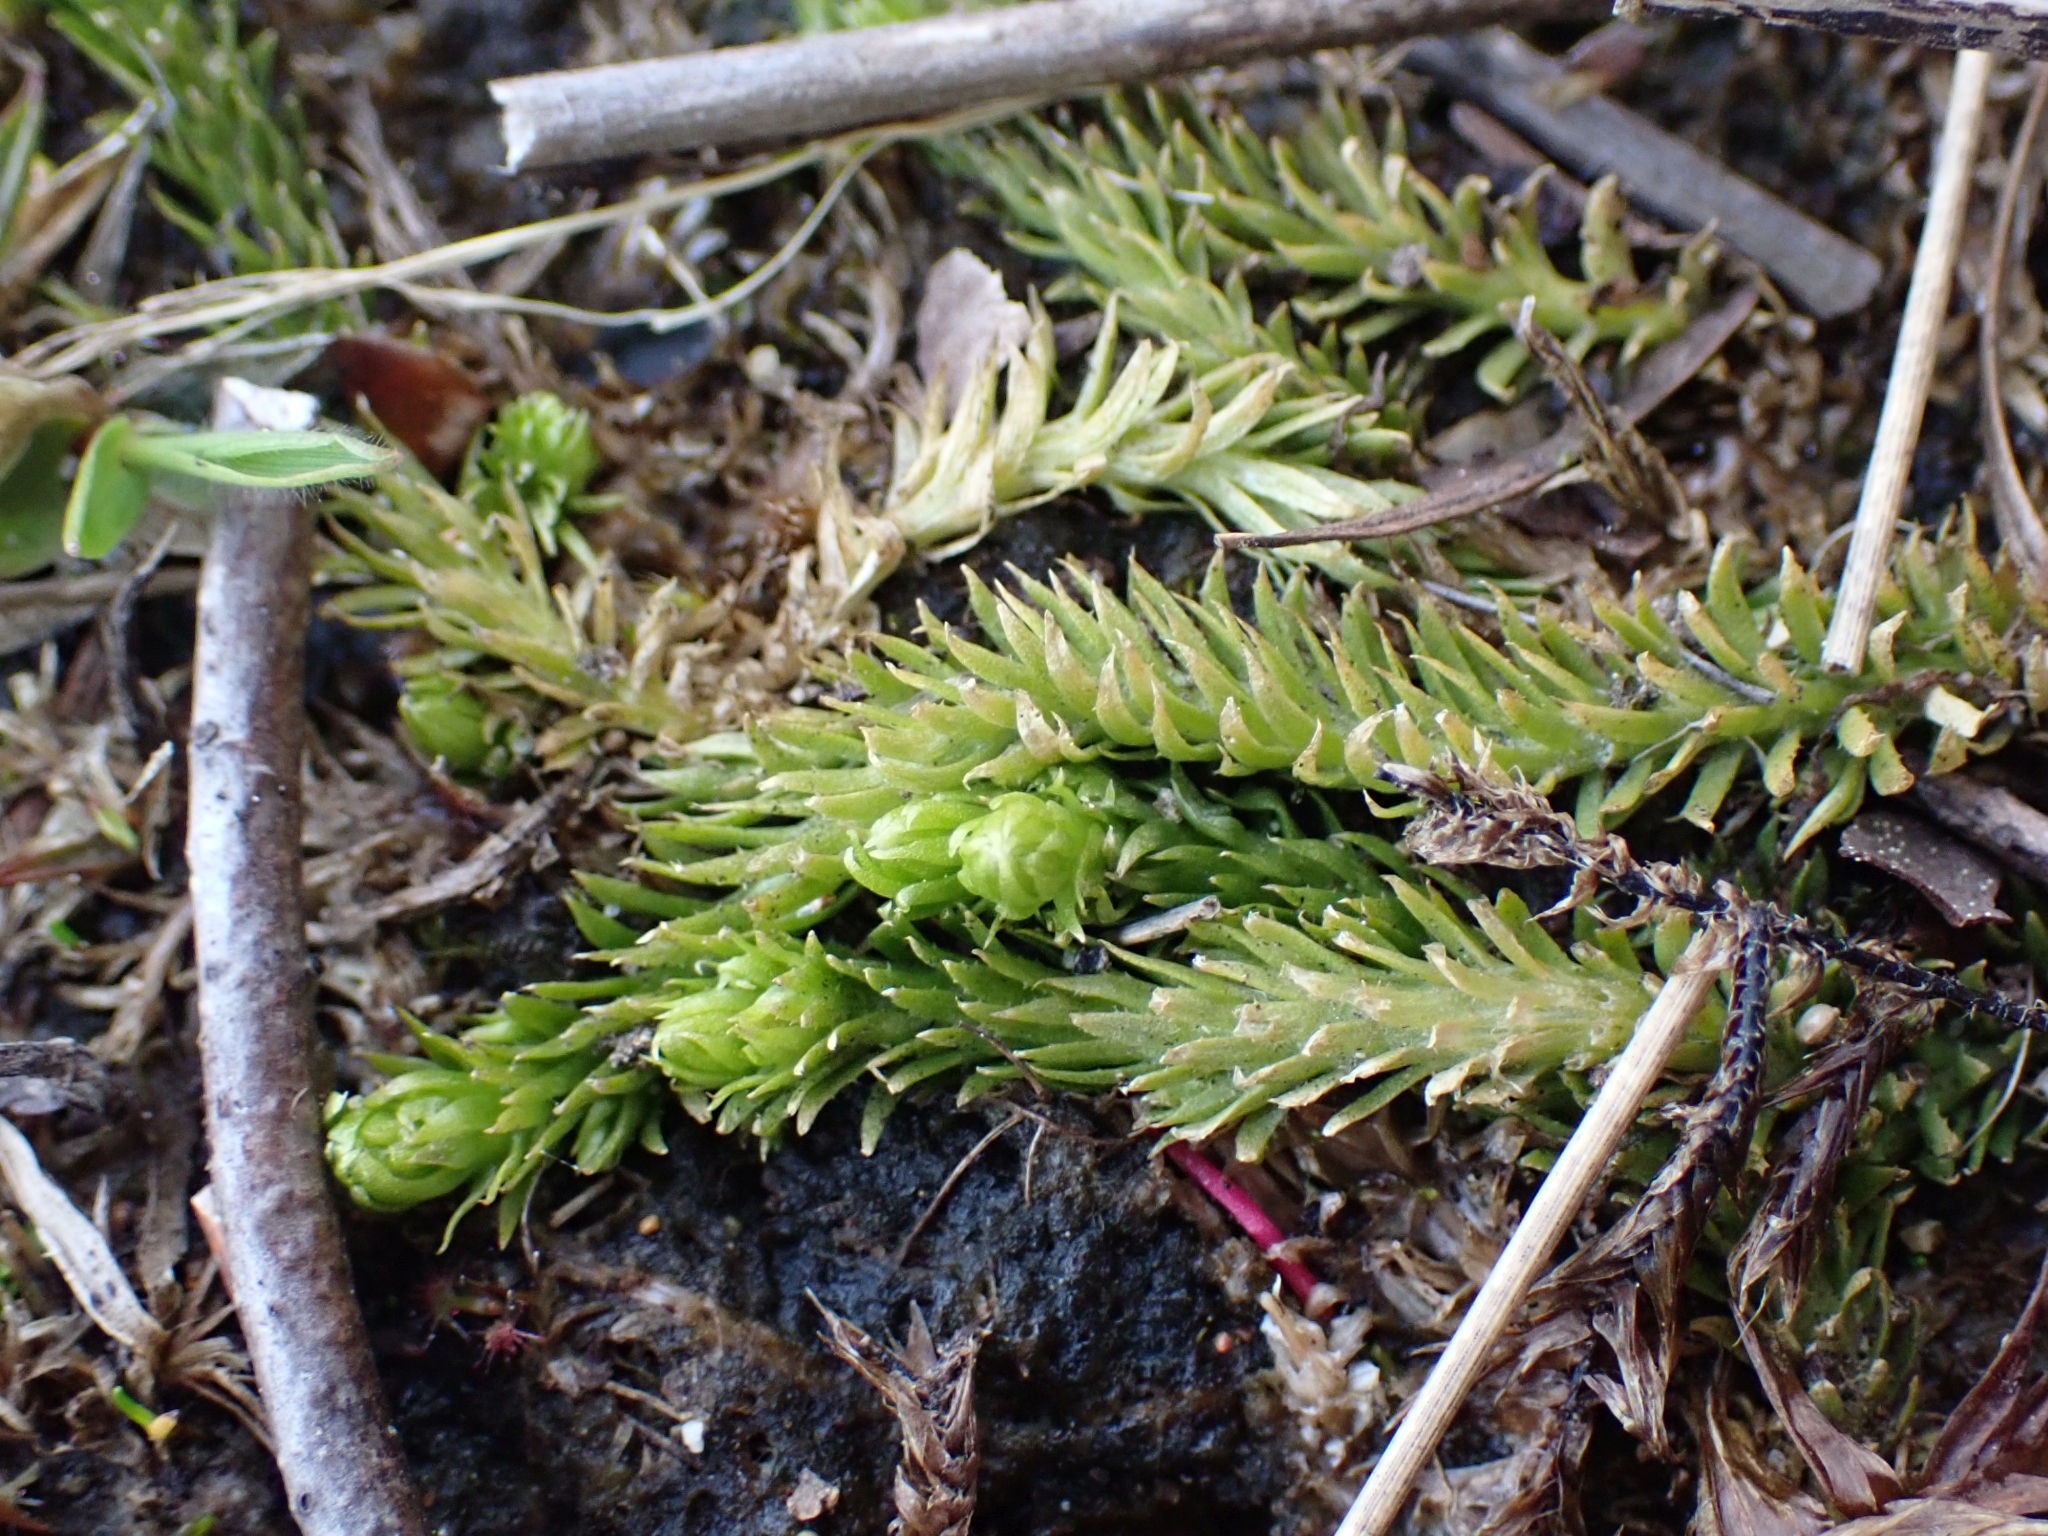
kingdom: Plantae
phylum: Tracheophyta
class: Lycopodiopsida
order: Lycopodiales
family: Lycopodiaceae
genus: Lycopodiella
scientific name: Lycopodiella inundata
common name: Marsh clubmoss
